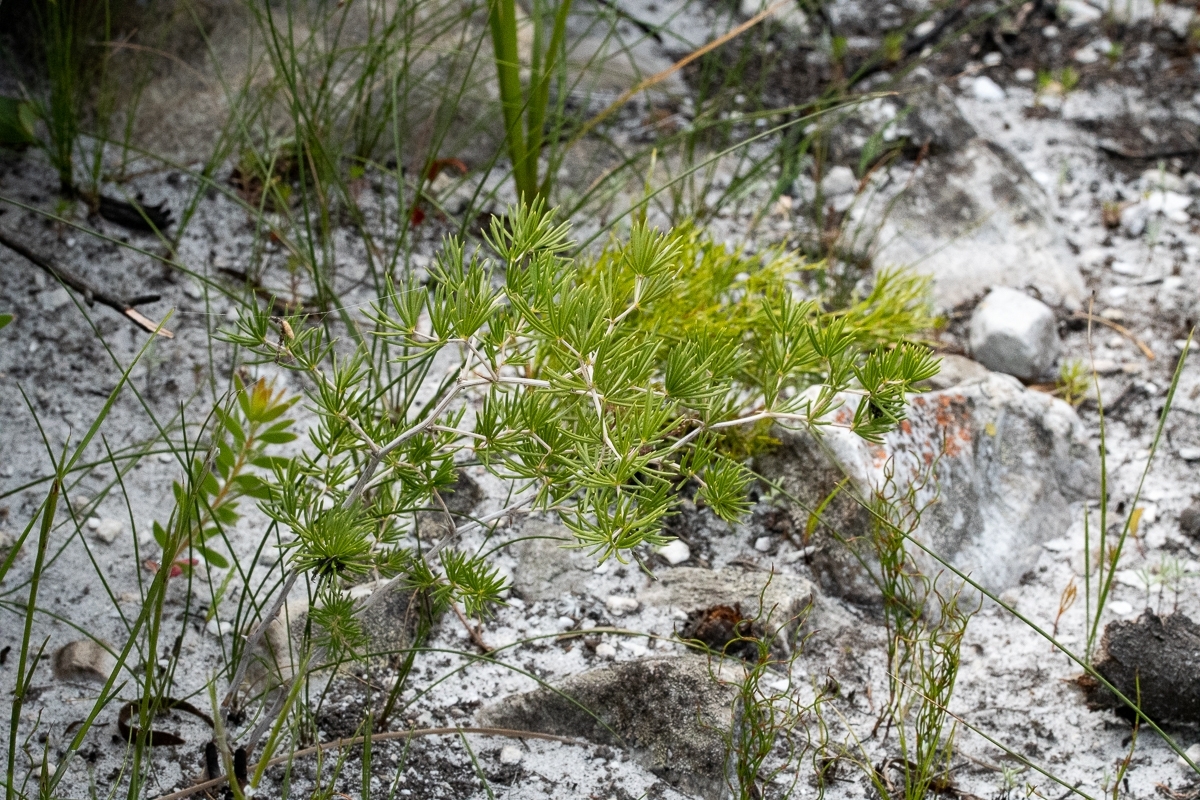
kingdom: Plantae
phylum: Tracheophyta
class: Liliopsida
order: Asparagales
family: Asparagaceae
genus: Asparagus
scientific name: Asparagus lignosus
